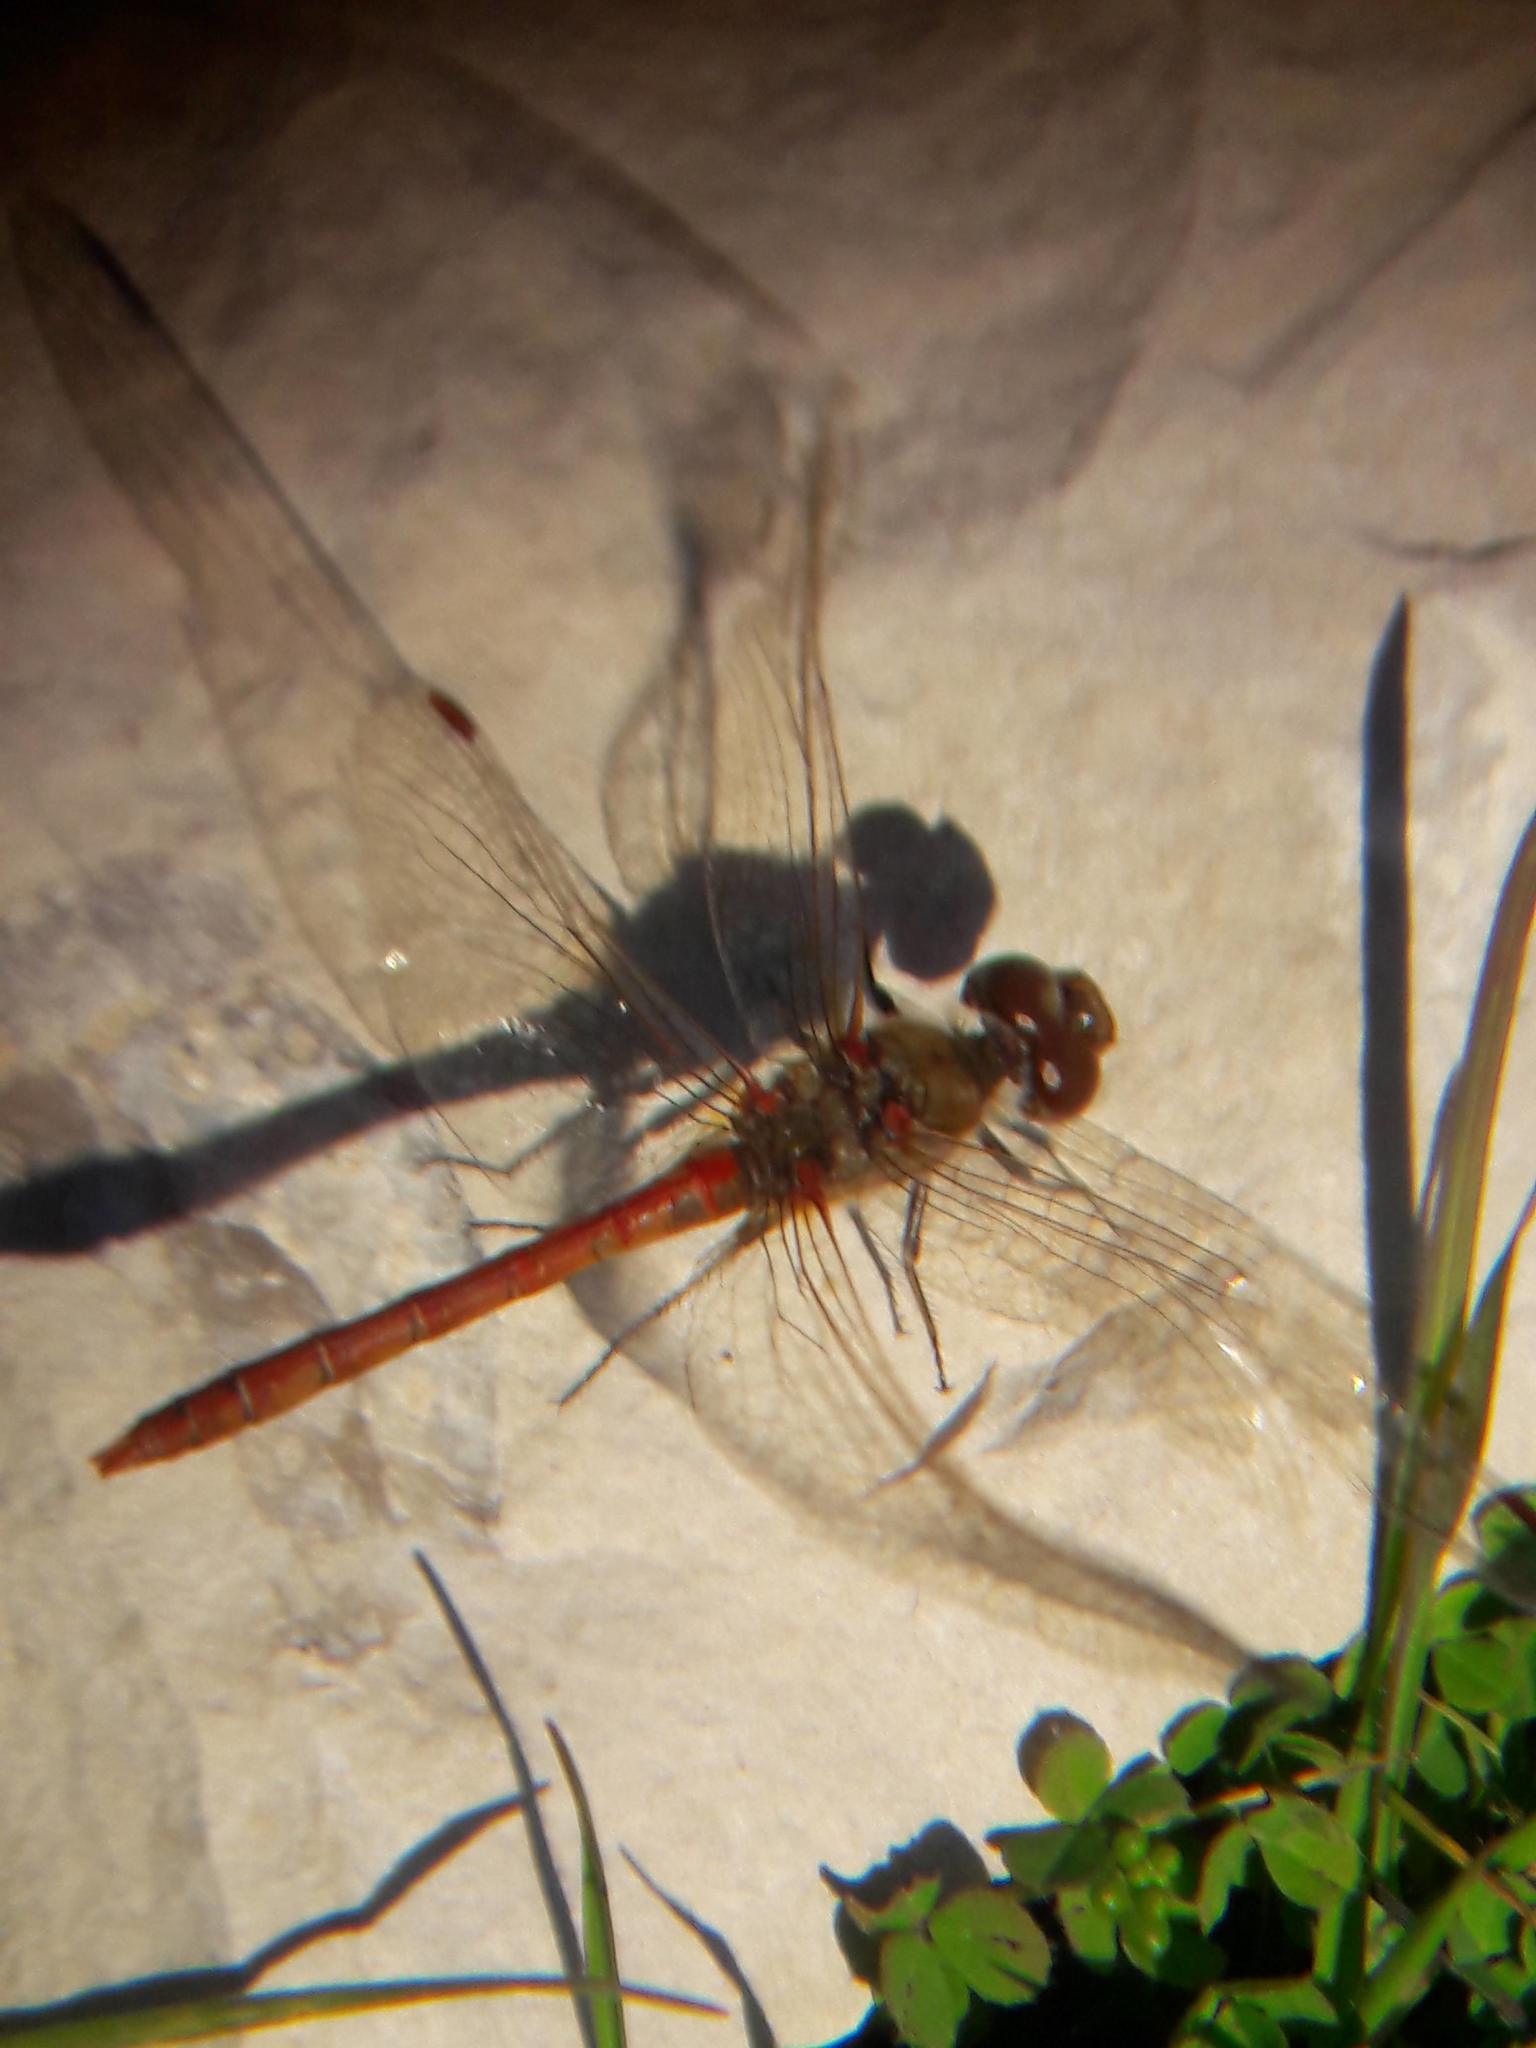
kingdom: Animalia
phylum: Arthropoda
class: Insecta
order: Odonata
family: Libellulidae
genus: Sympetrum
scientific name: Sympetrum striolatum
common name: Common darter
